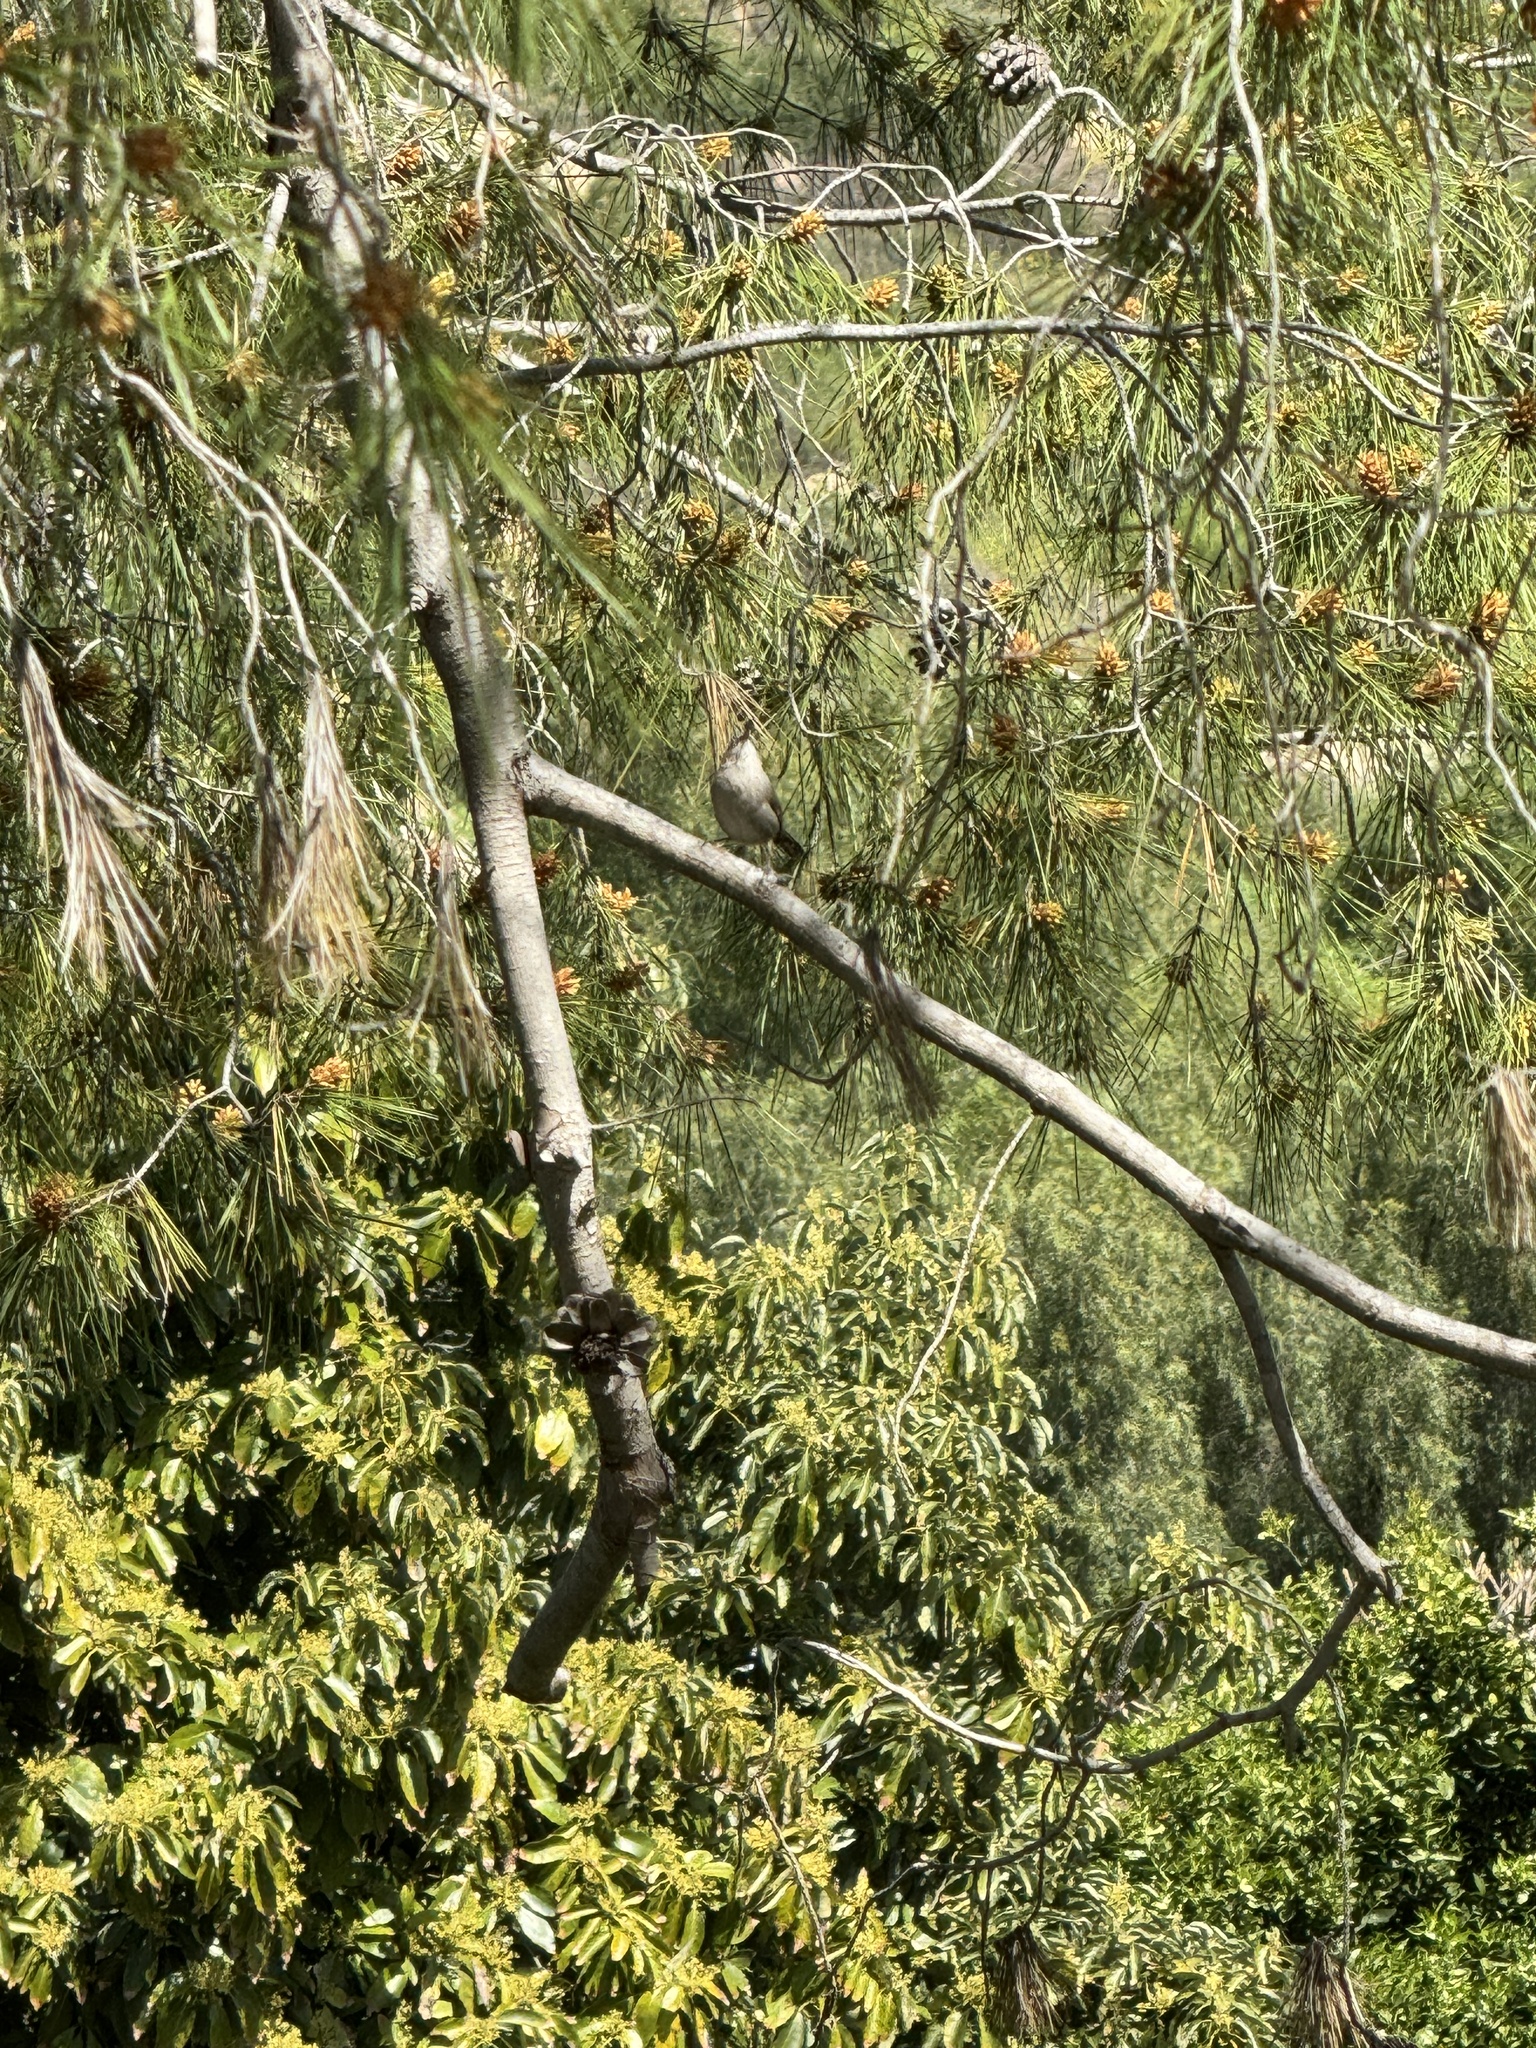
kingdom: Animalia
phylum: Chordata
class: Aves
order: Passeriformes
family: Troglodytidae
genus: Thryomanes
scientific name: Thryomanes bewickii
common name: Bewick's wren
